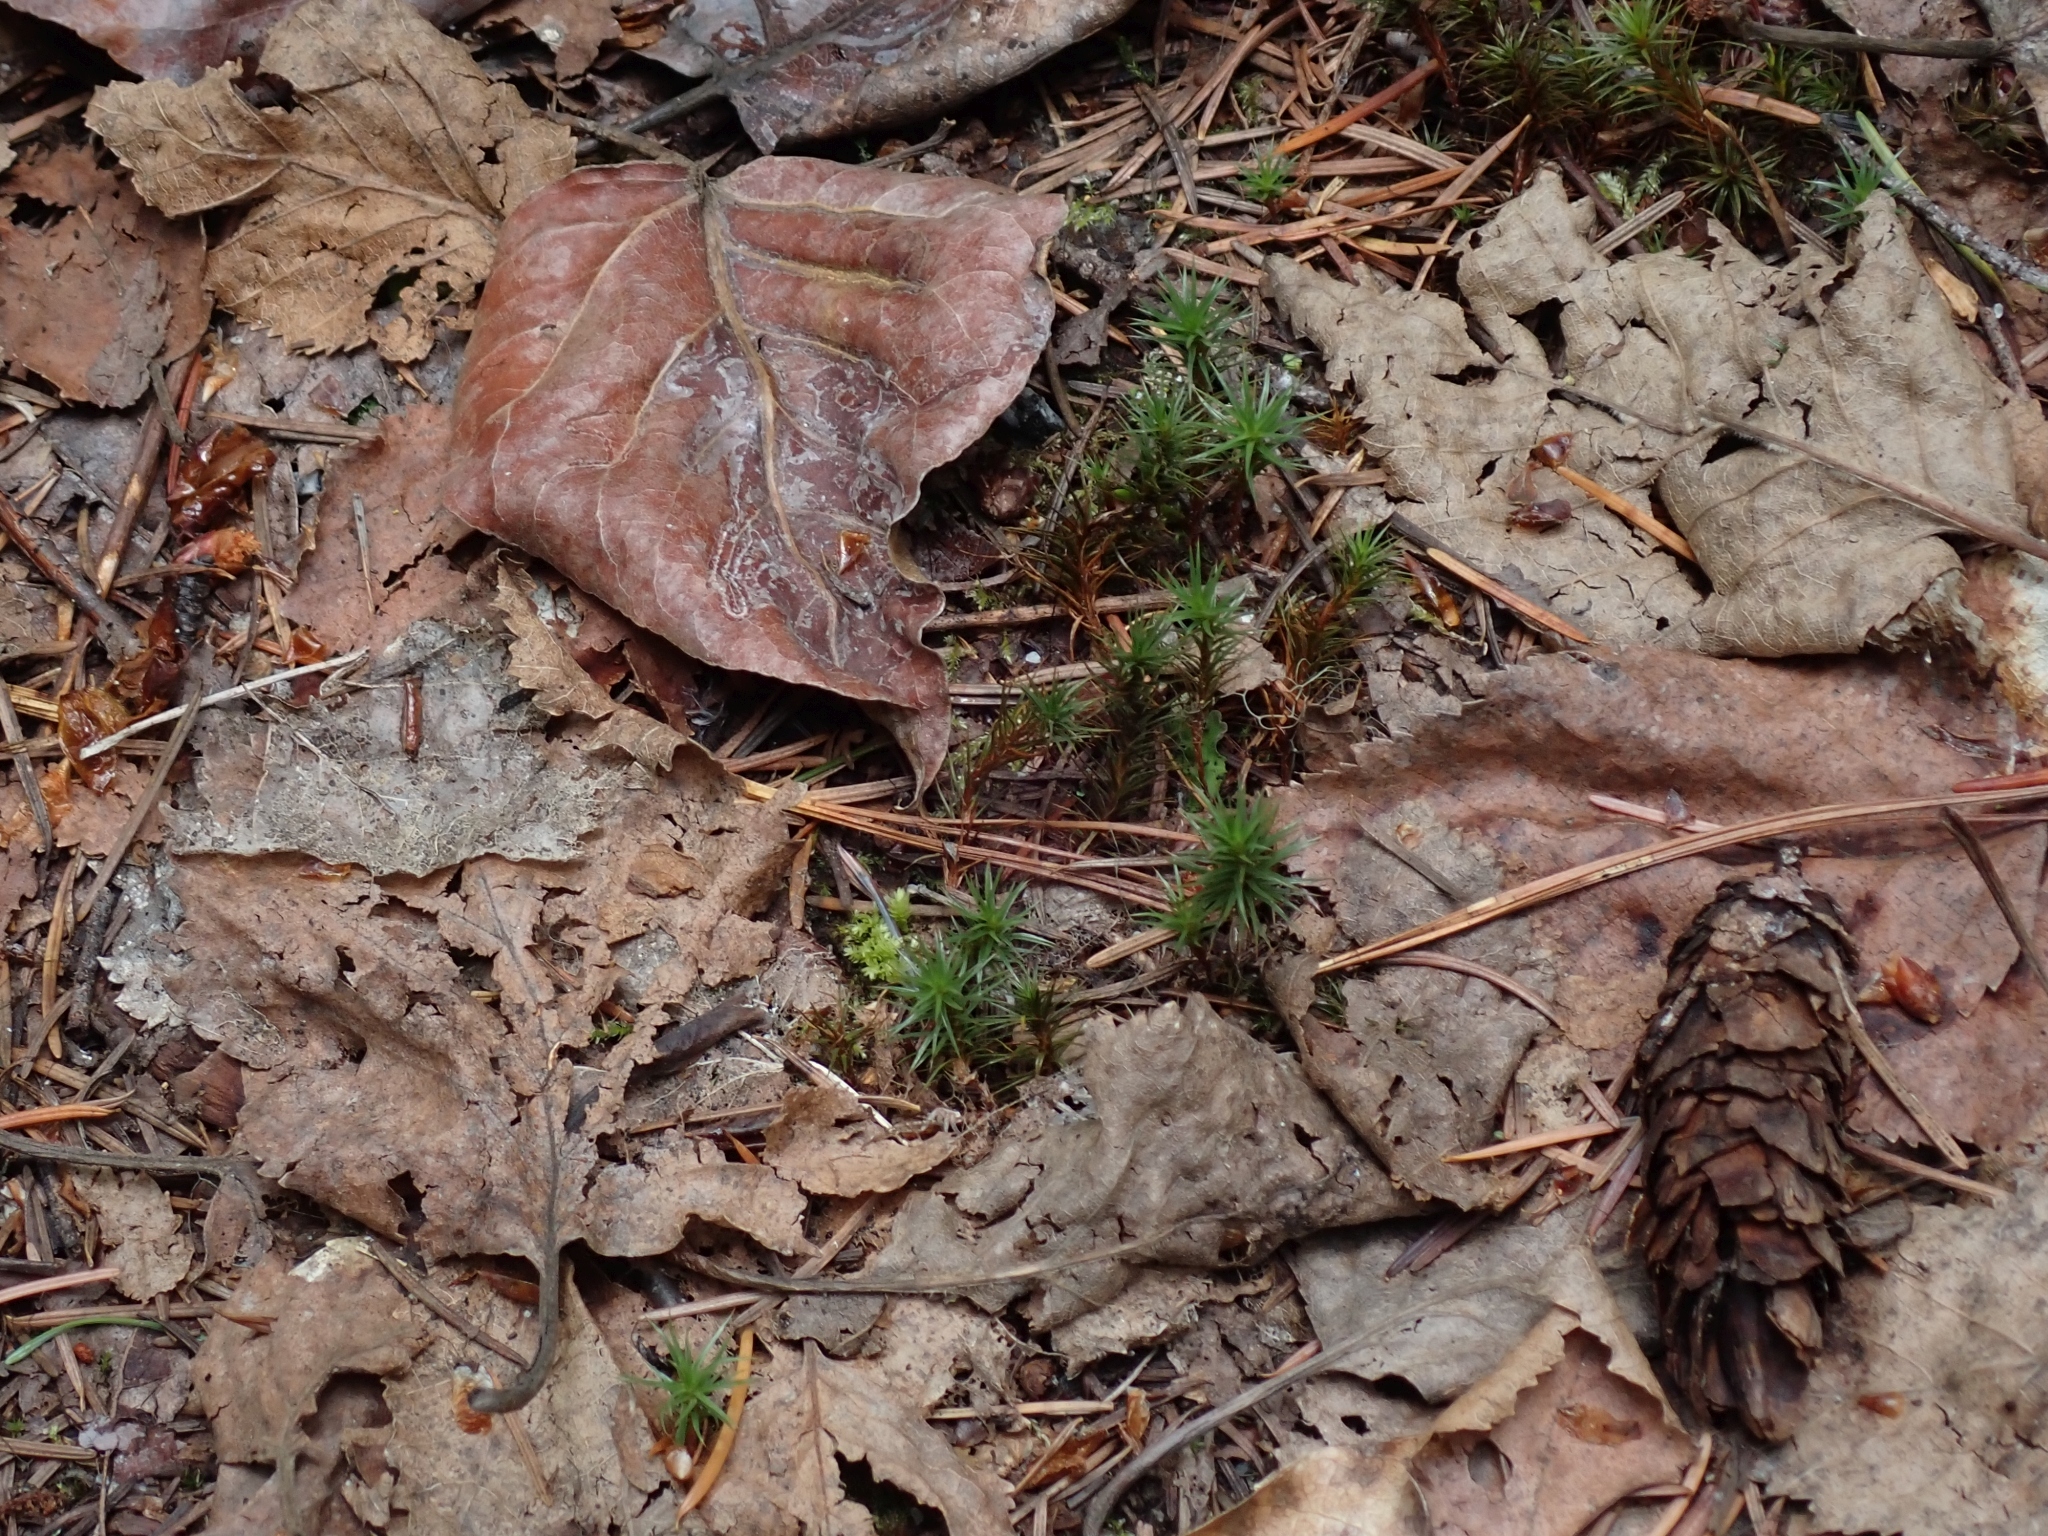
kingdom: Plantae
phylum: Bryophyta
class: Polytrichopsida
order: Polytrichales
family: Polytrichaceae
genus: Polytrichum
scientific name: Polytrichum juniperinum
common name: Juniper haircap moss
